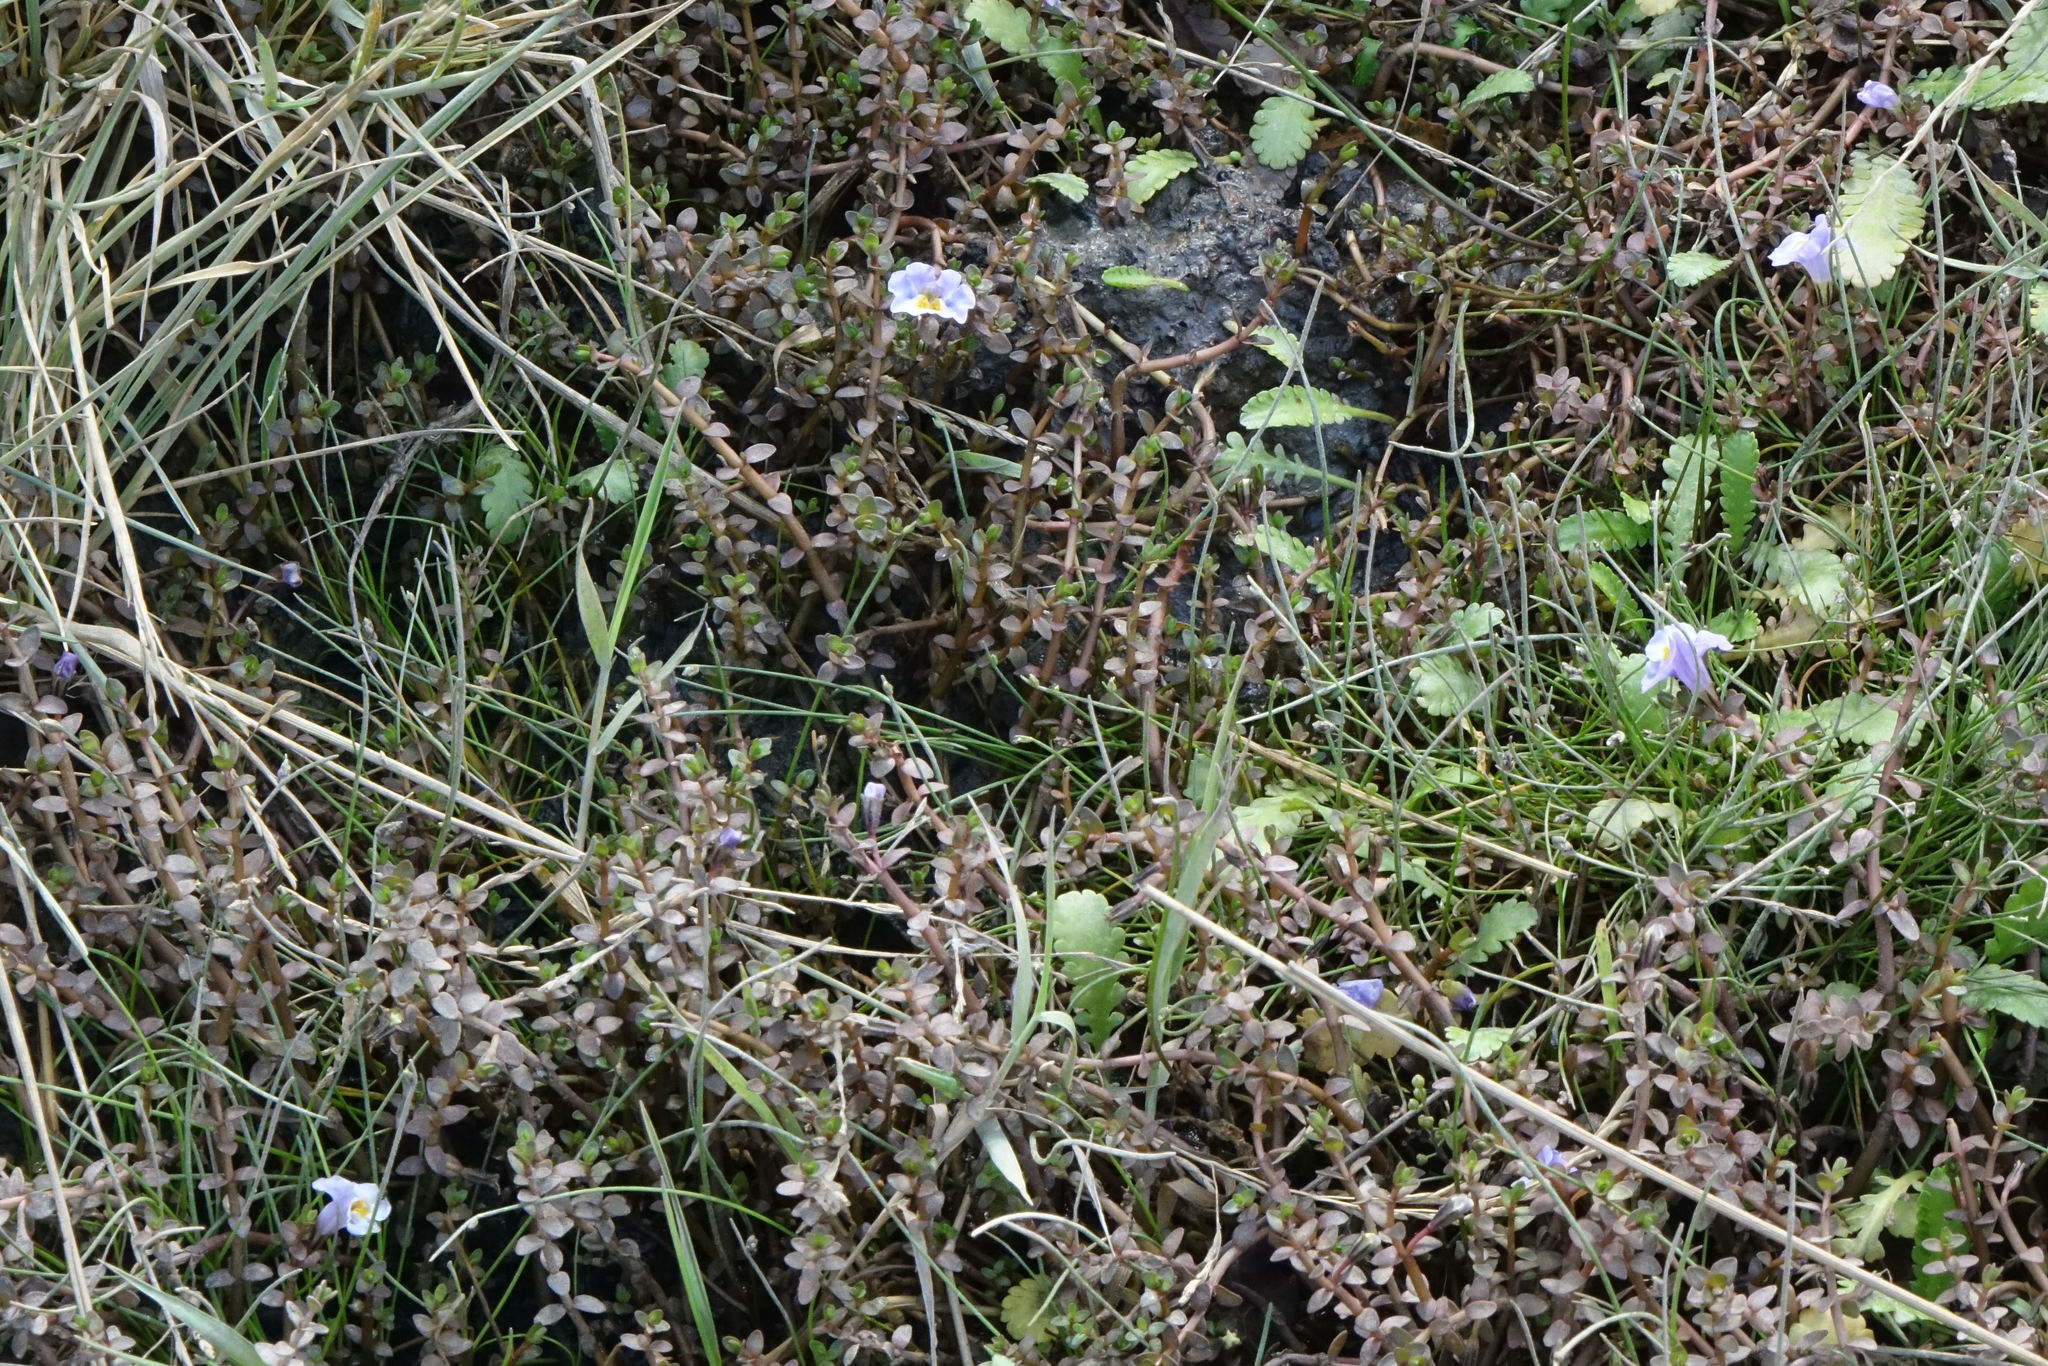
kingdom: Plantae
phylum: Tracheophyta
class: Magnoliopsida
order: Lamiales
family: Phrymaceae
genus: Thyridia
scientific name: Thyridia repens
